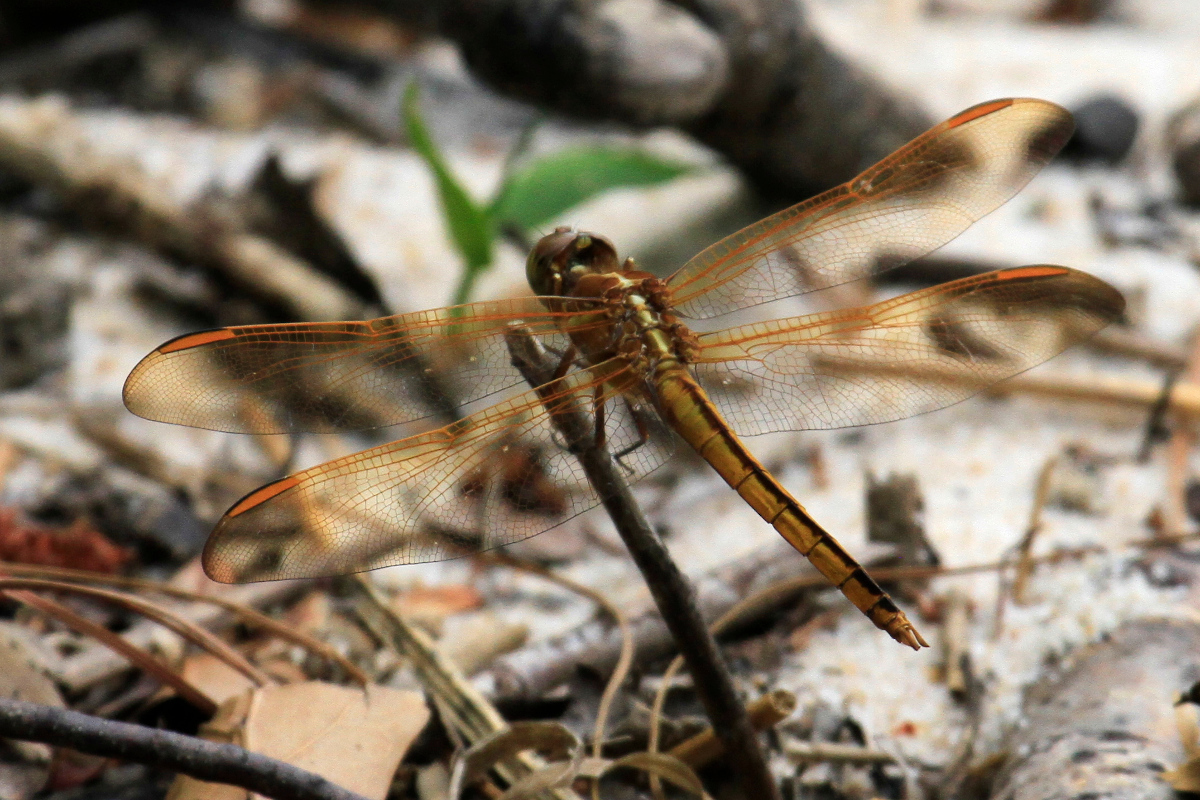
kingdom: Animalia
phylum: Arthropoda
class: Insecta
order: Odonata
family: Libellulidae
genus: Libellula
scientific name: Libellula auripennis
